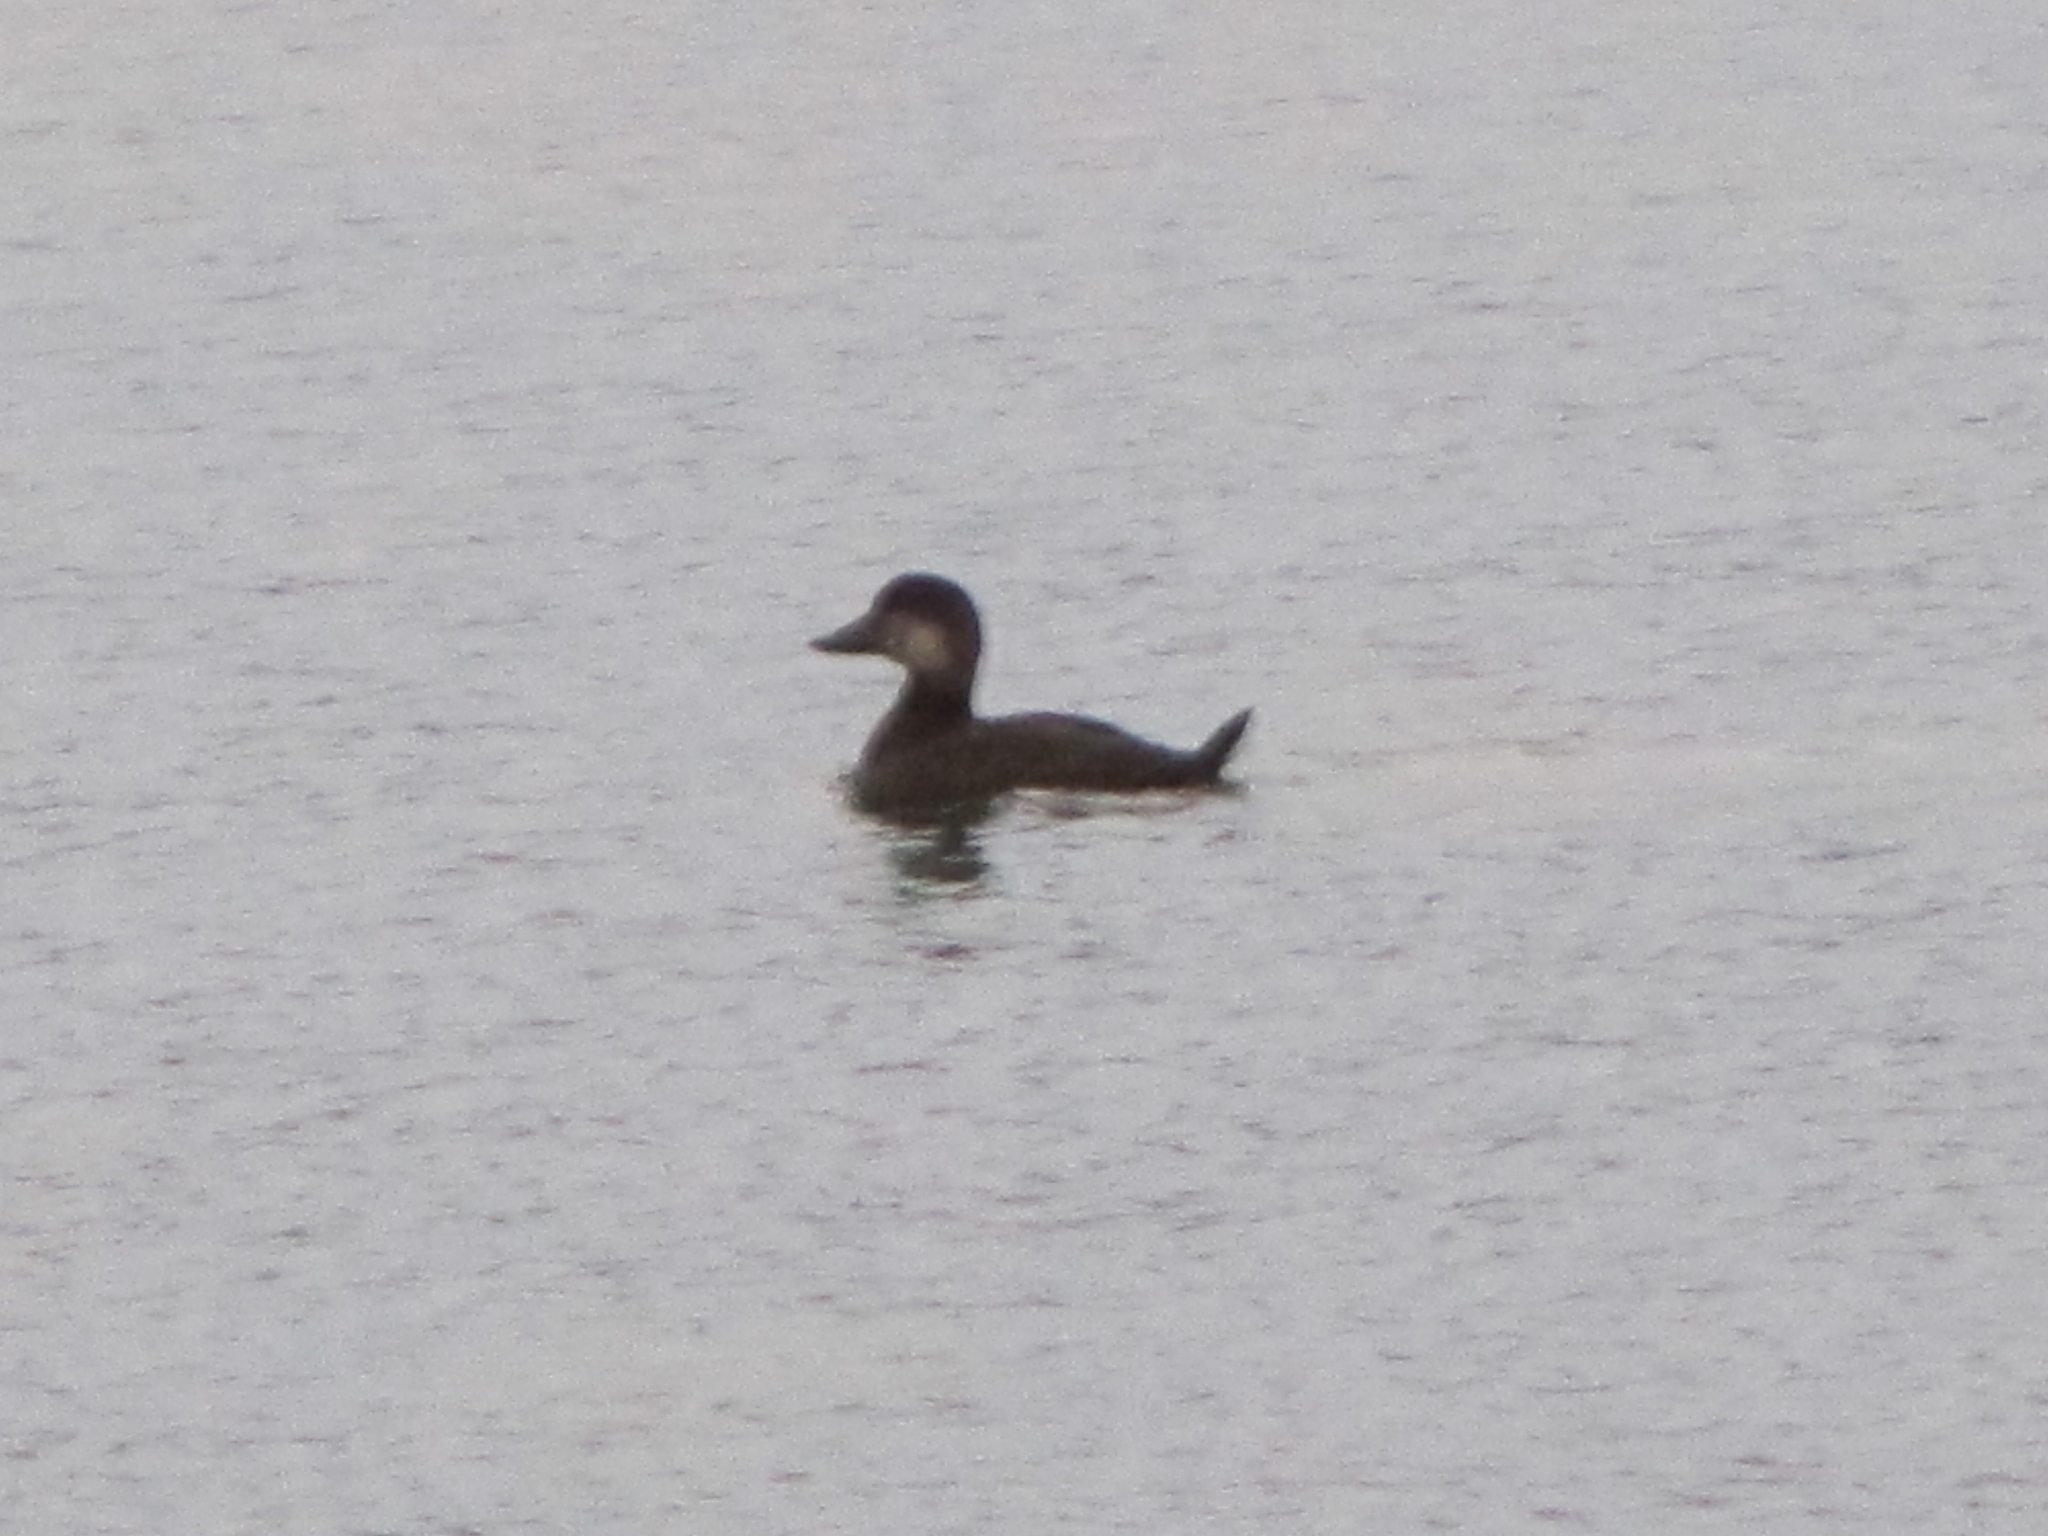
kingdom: Animalia
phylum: Chordata
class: Aves
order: Anseriformes
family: Anatidae
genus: Melanitta
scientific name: Melanitta americana
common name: Black scoter
